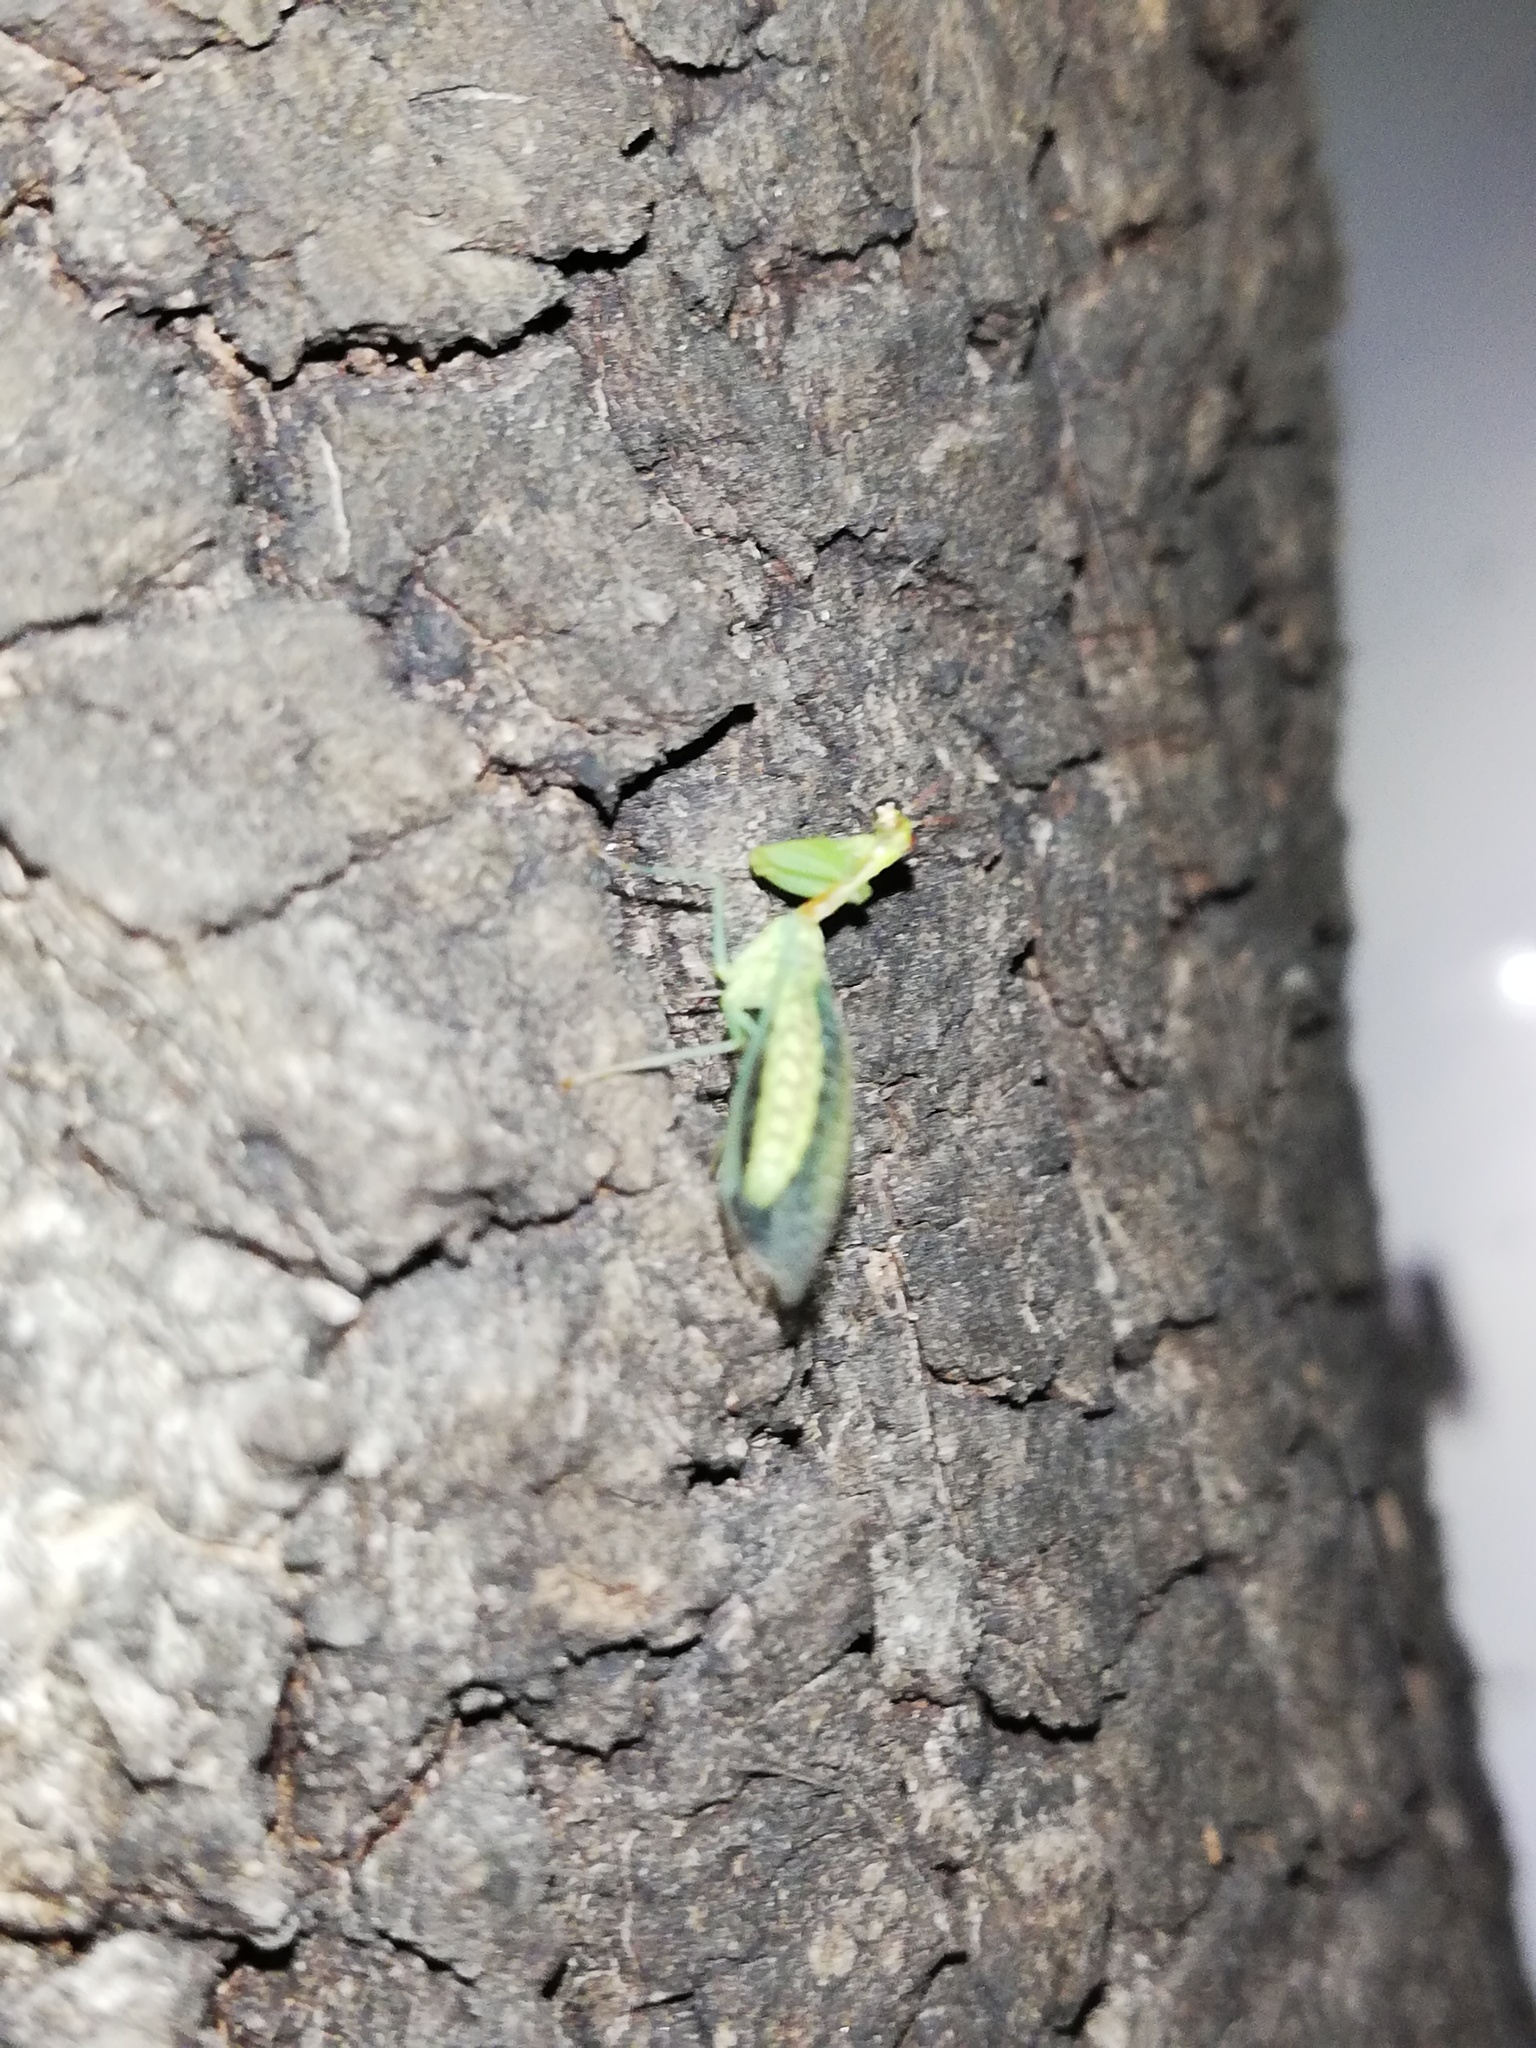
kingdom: Animalia
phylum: Arthropoda
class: Insecta
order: Neuroptera
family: Mantispidae
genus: Zeugomantispa
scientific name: Zeugomantispa minuta
